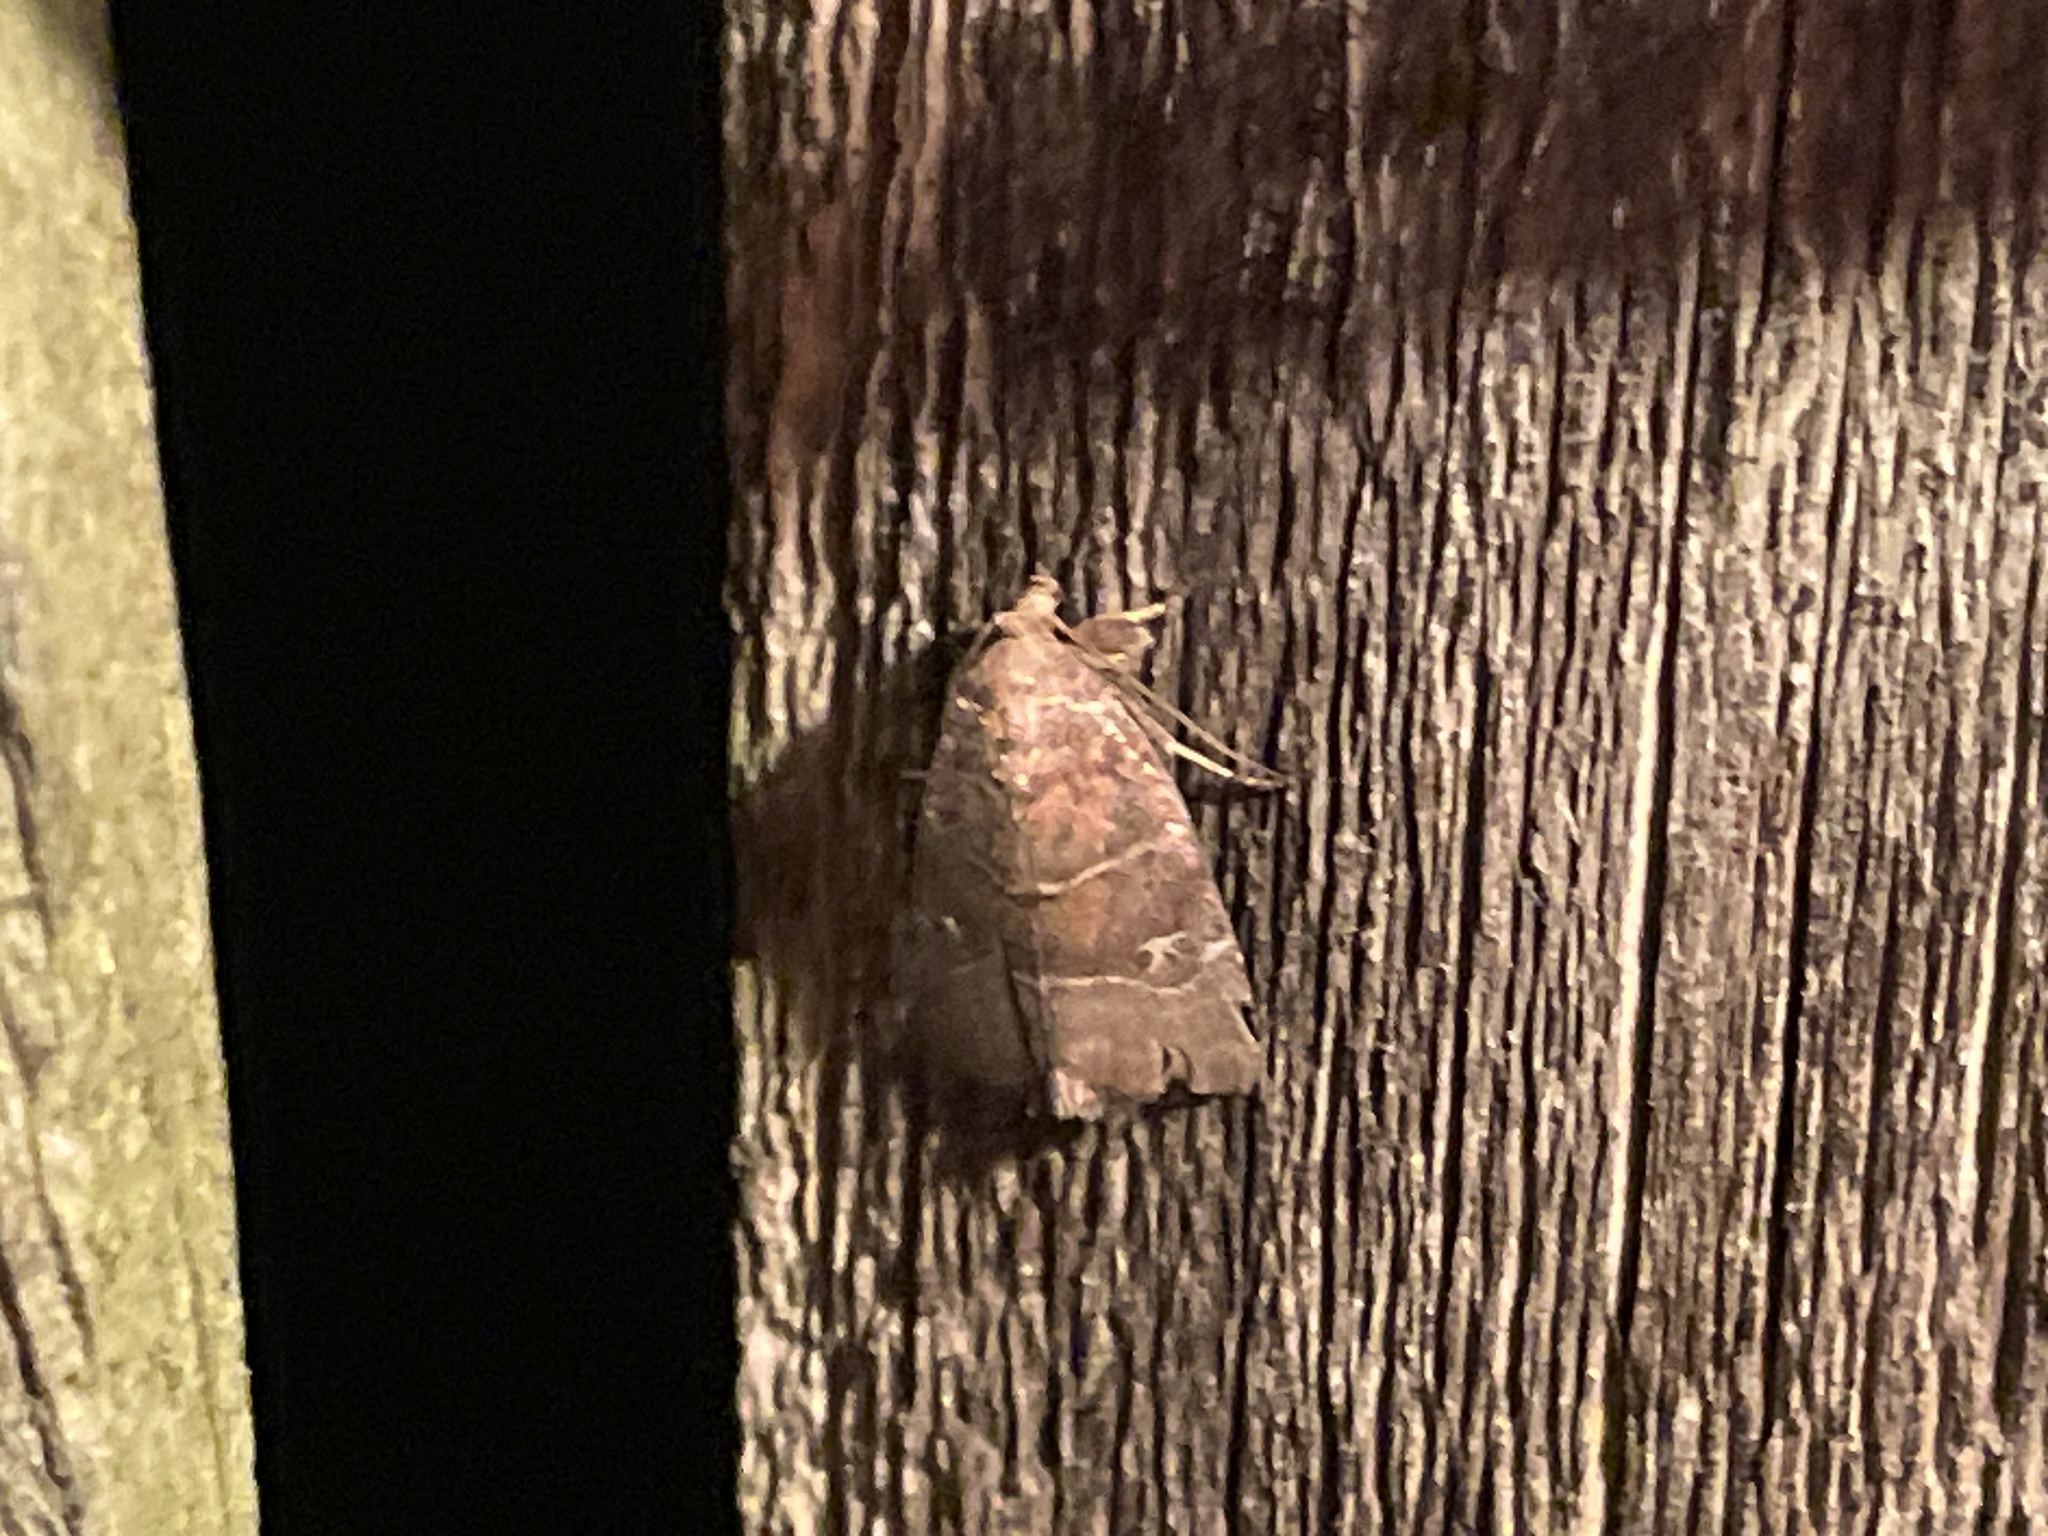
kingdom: Animalia
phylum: Arthropoda
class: Insecta
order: Lepidoptera
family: Noctuidae
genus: Elaphria
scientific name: Elaphria grata
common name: Grateful midget moth
